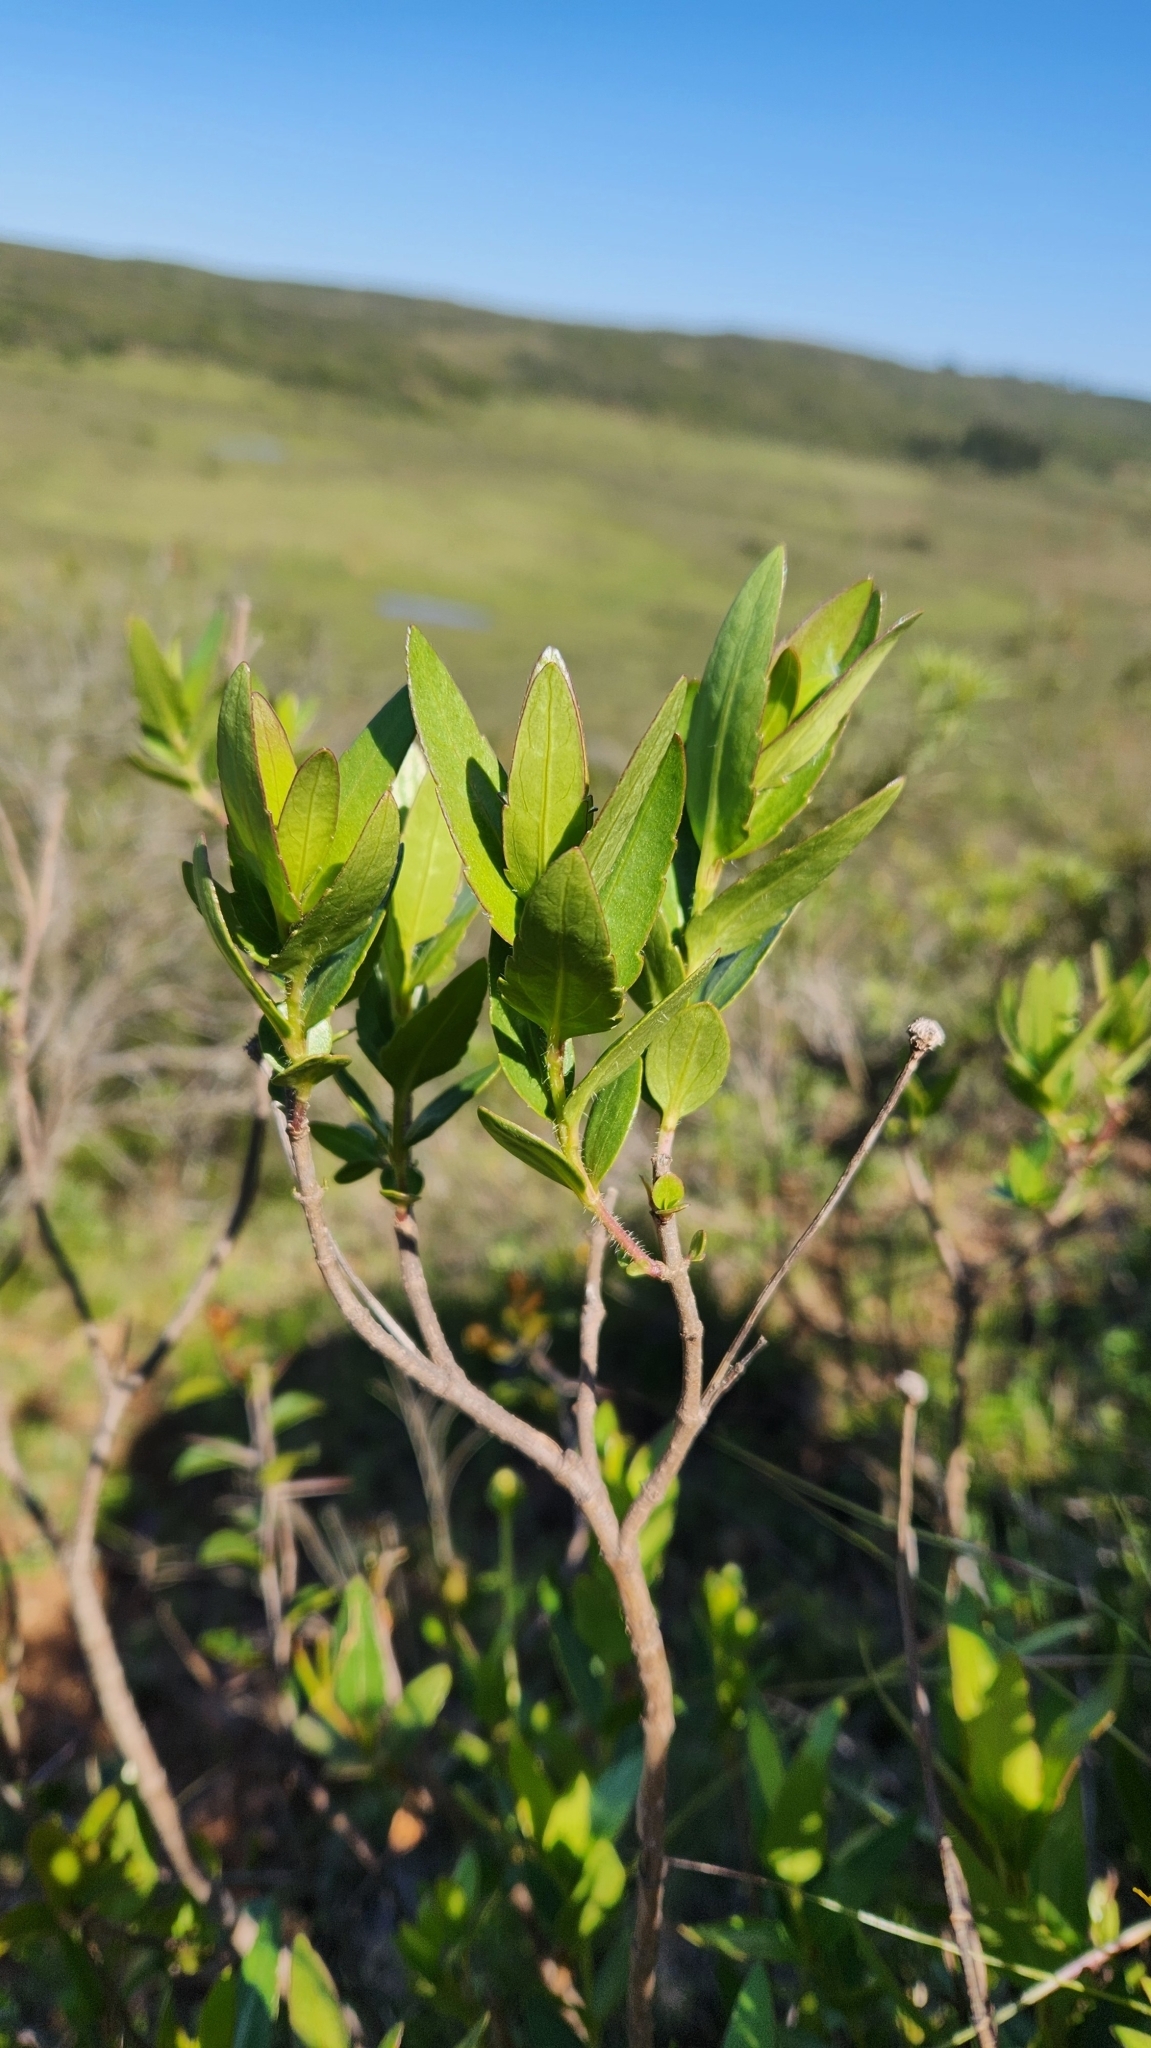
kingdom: Animalia
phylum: Arthropoda
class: Malacostraca
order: Decapoda
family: Mecochiridae
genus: Meyeria
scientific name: Meyeria
